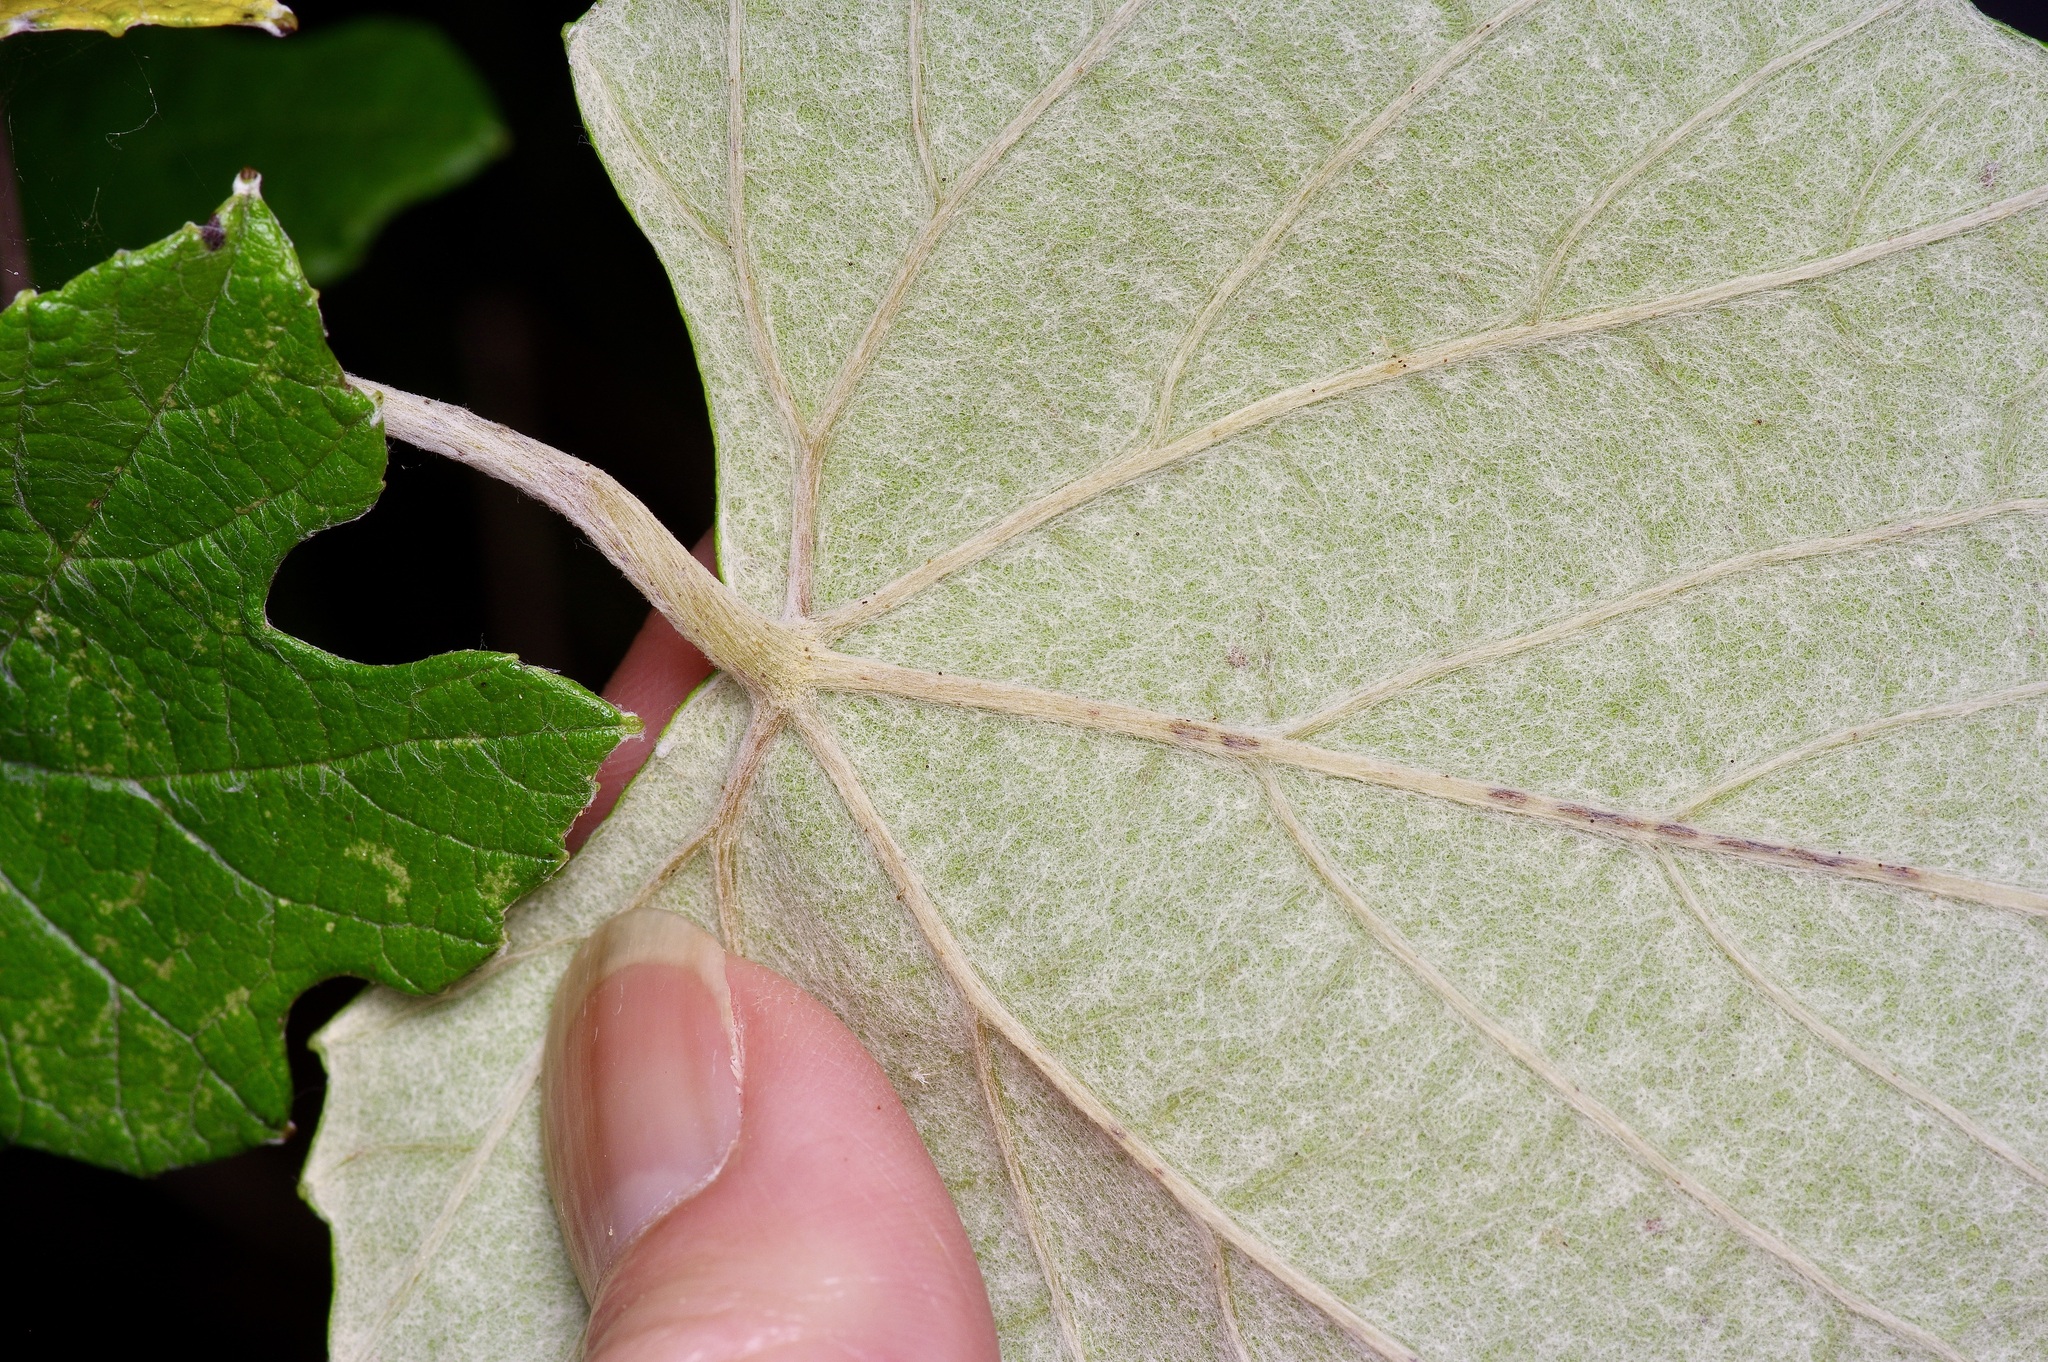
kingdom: Plantae
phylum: Tracheophyta
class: Magnoliopsida
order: Vitales
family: Vitaceae
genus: Vitis
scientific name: Vitis mustangensis
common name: Mustang grape
